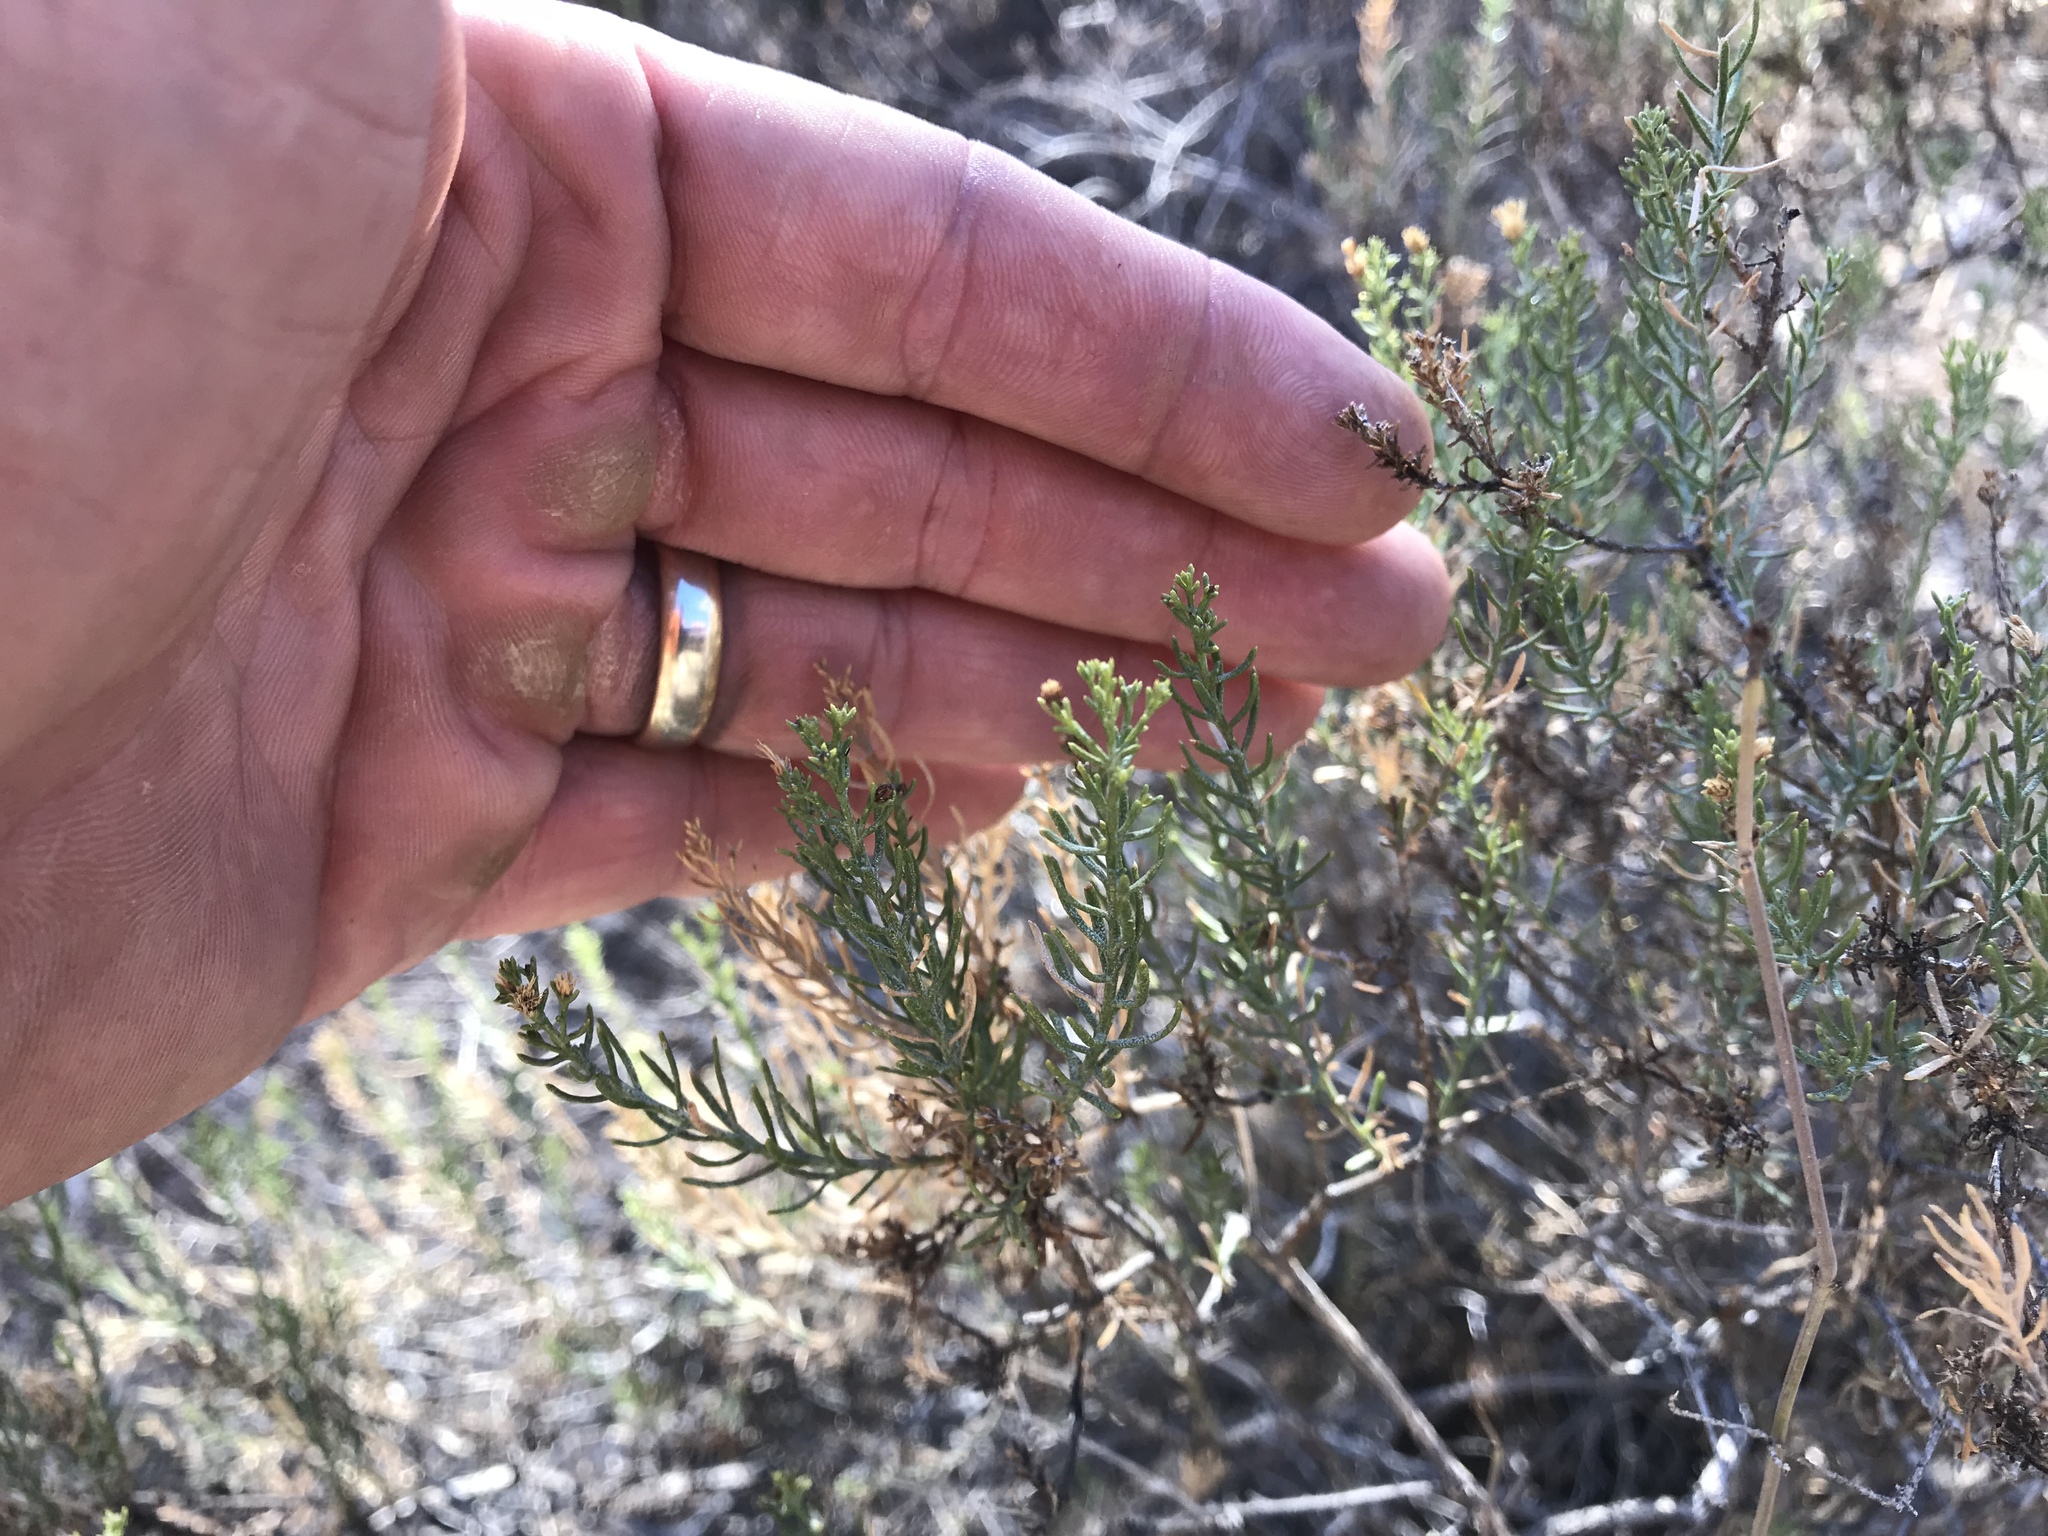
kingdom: Plantae
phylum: Tracheophyta
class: Magnoliopsida
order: Asterales
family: Asteraceae
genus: Ericameria
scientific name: Ericameria laricifolia
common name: Turpentine-bush
